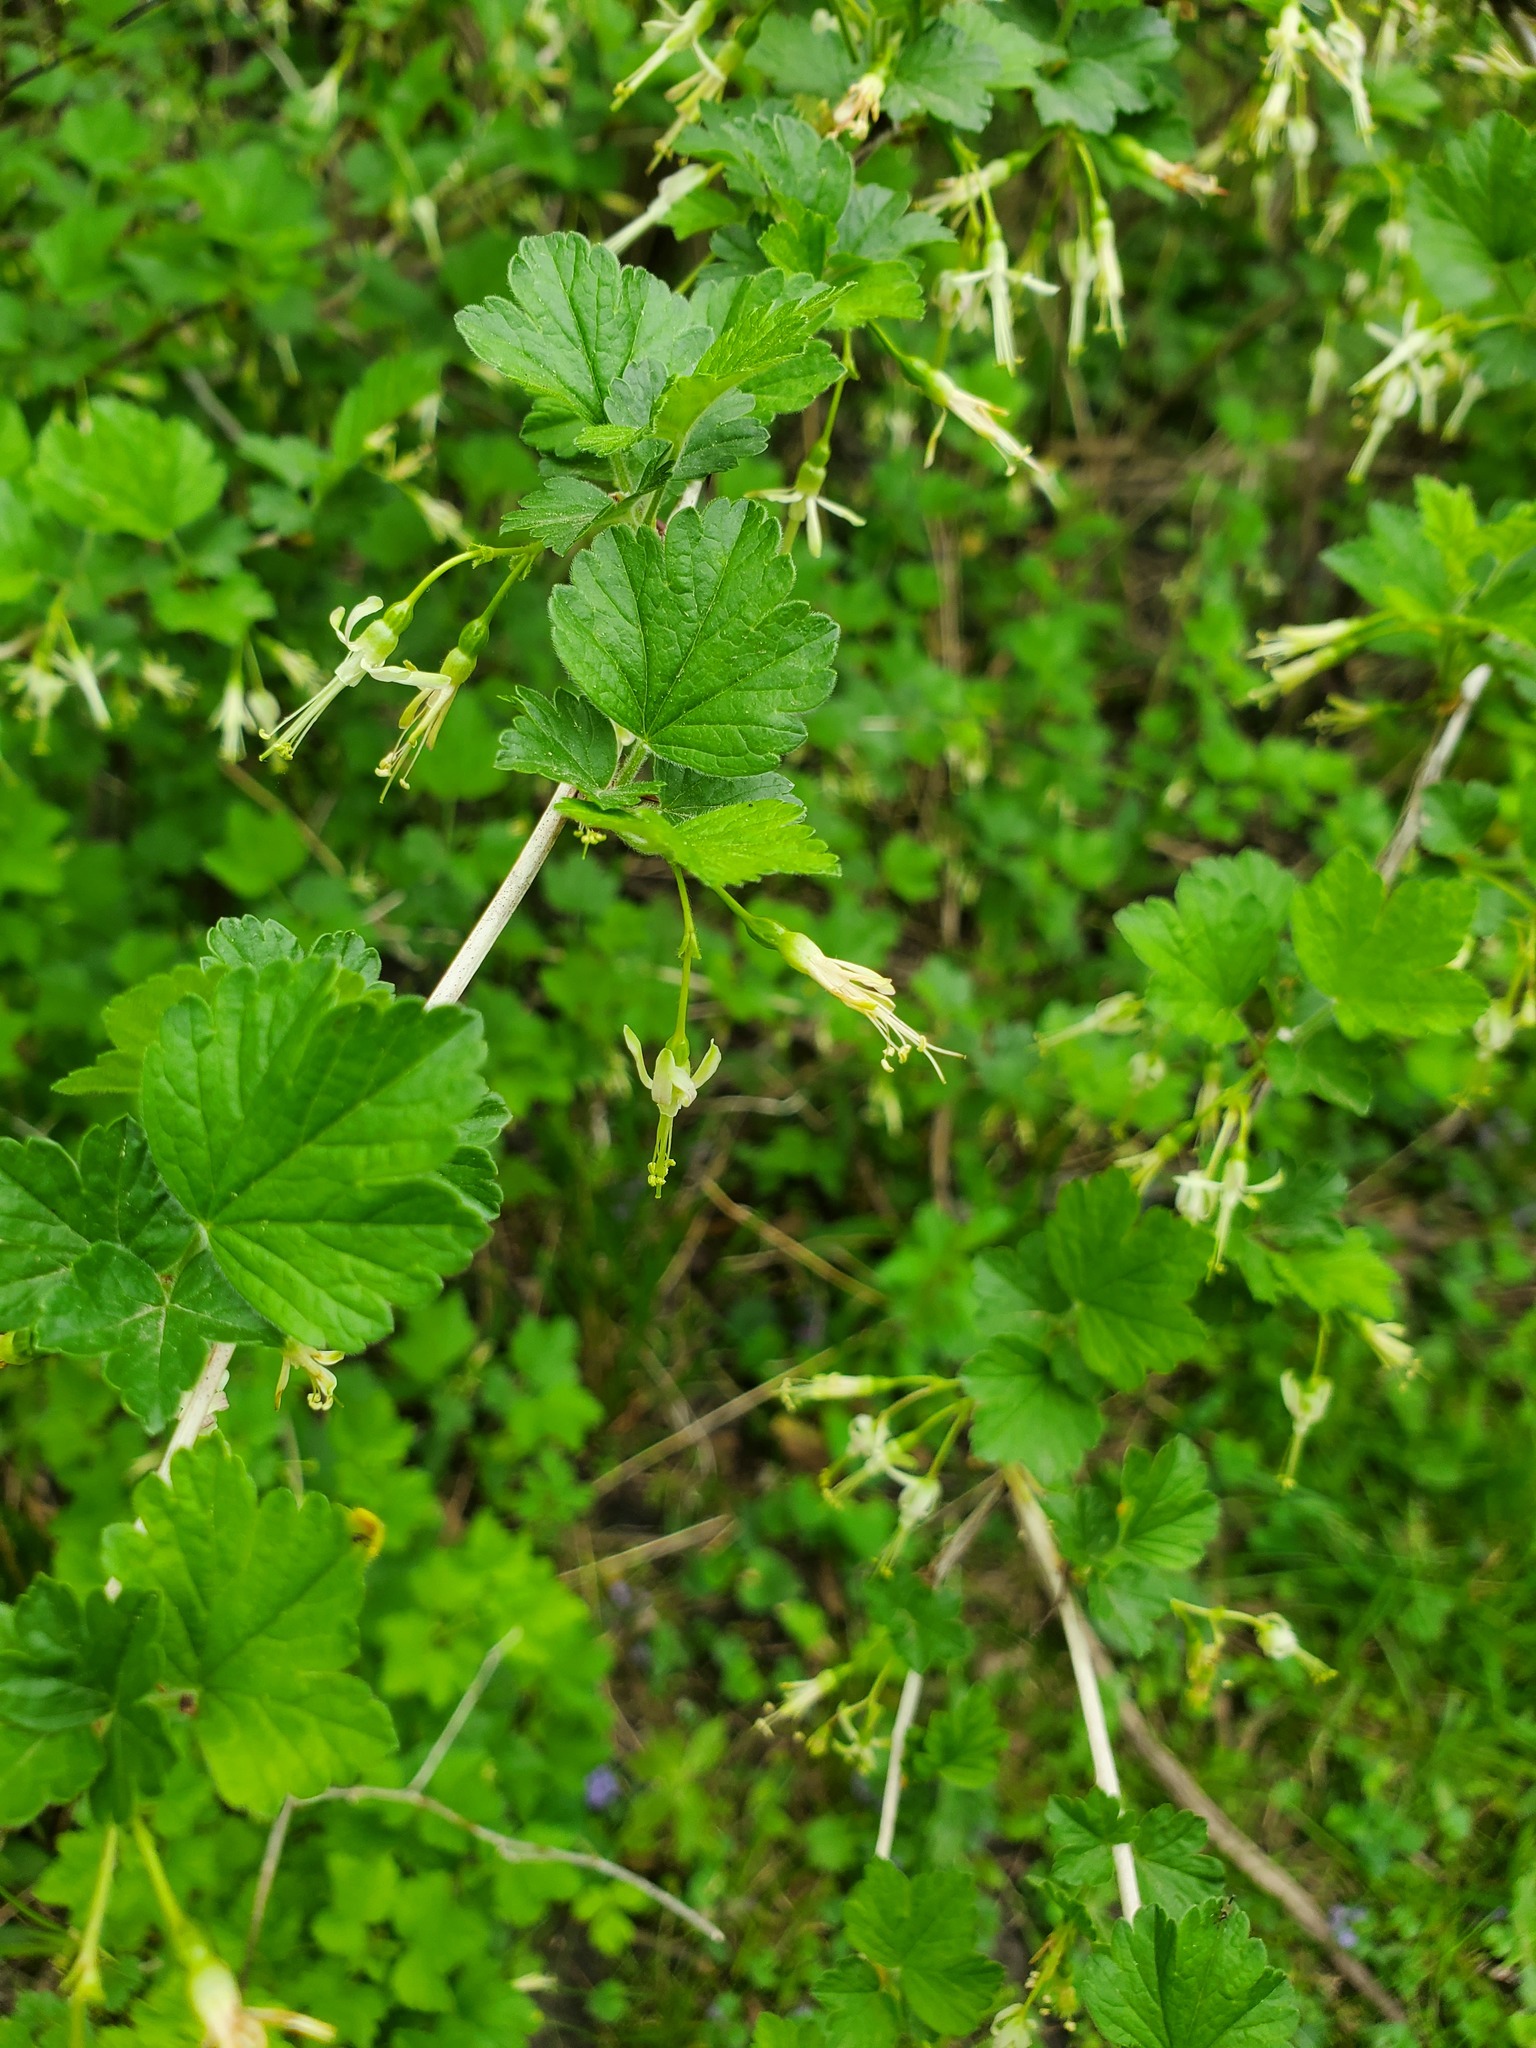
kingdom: Plantae
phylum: Tracheophyta
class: Magnoliopsida
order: Saxifragales
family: Grossulariaceae
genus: Ribes
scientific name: Ribes missouriense
